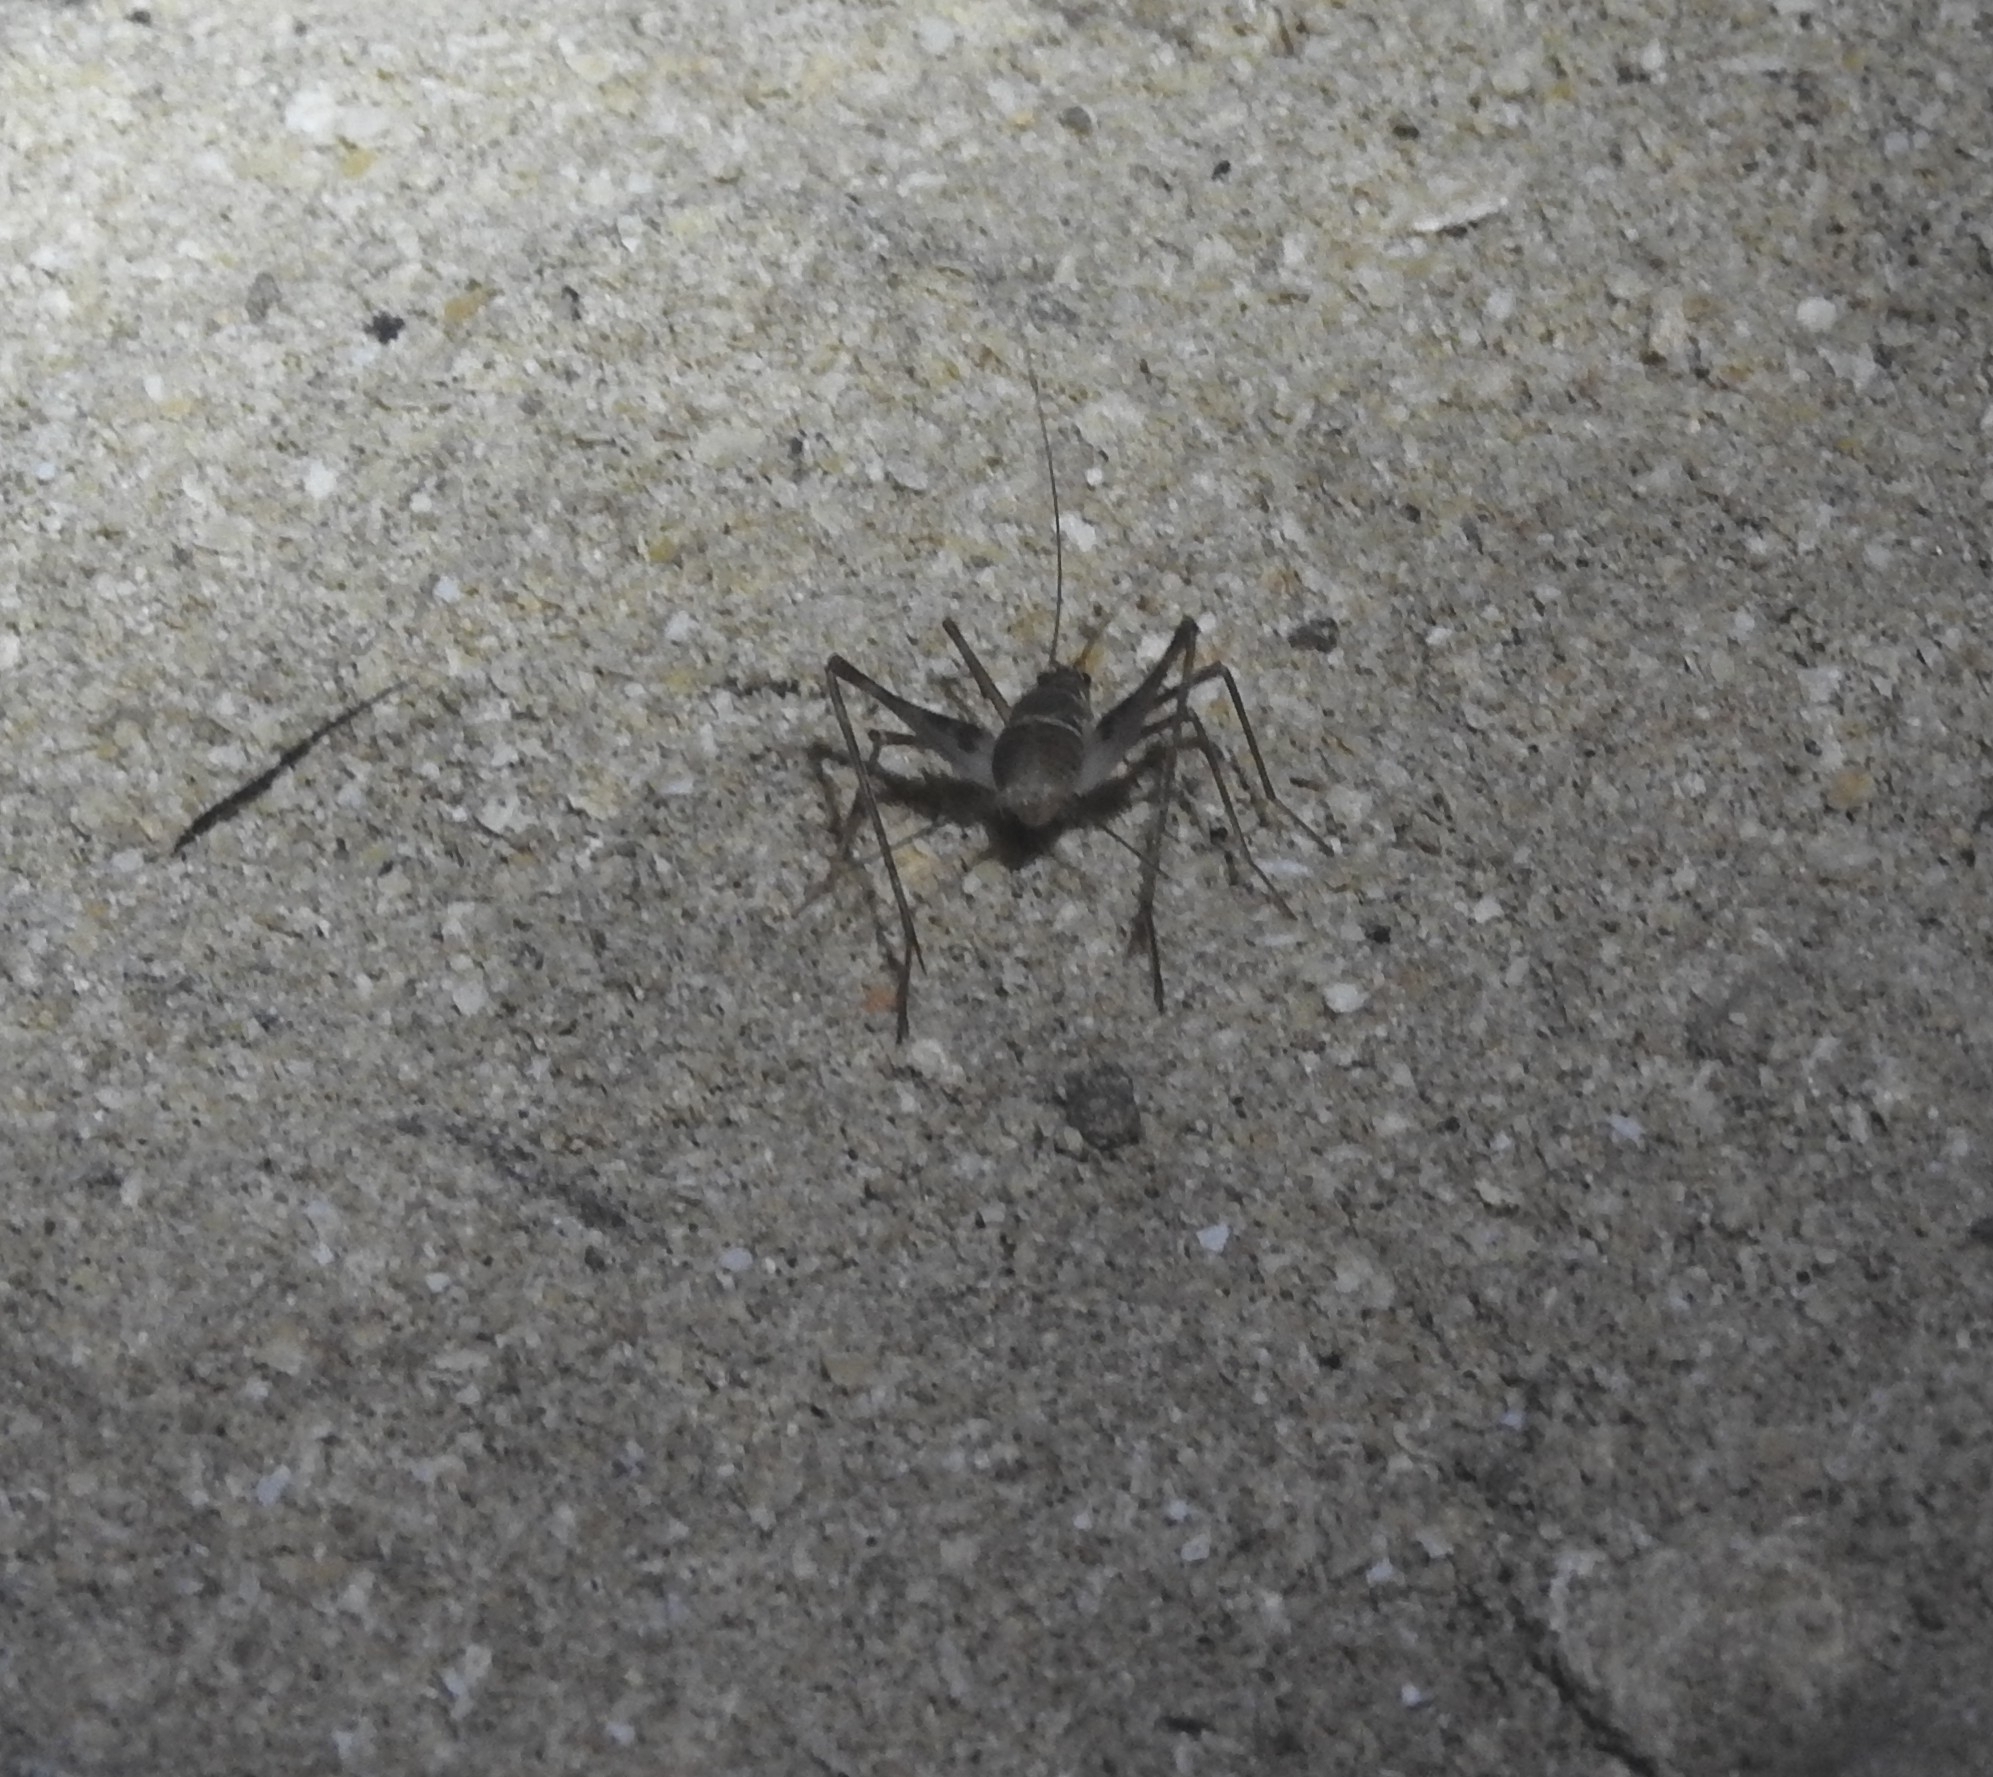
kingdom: Animalia
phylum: Arthropoda
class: Insecta
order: Orthoptera
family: Phalangopsidae
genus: Mayagryllus
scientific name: Mayagryllus yucatanus
